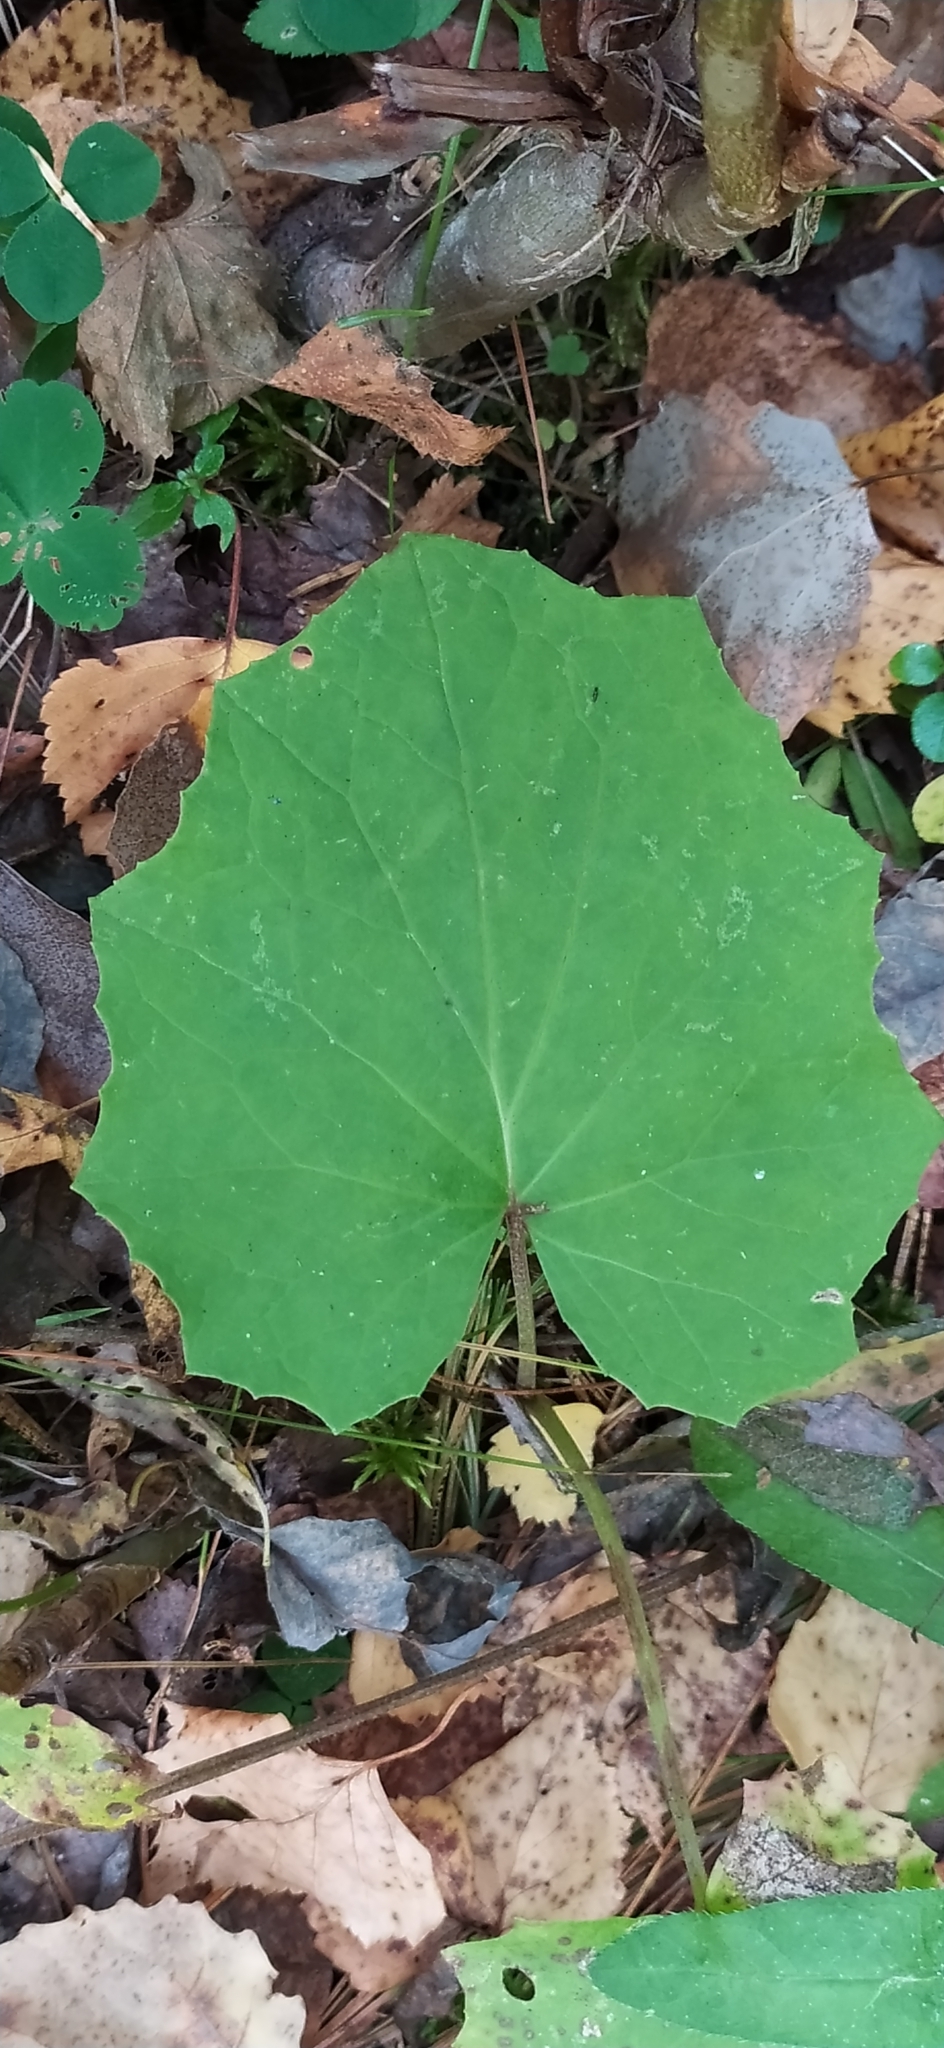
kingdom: Plantae
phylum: Tracheophyta
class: Magnoliopsida
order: Asterales
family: Asteraceae
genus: Tussilago
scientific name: Tussilago farfara
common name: Coltsfoot
